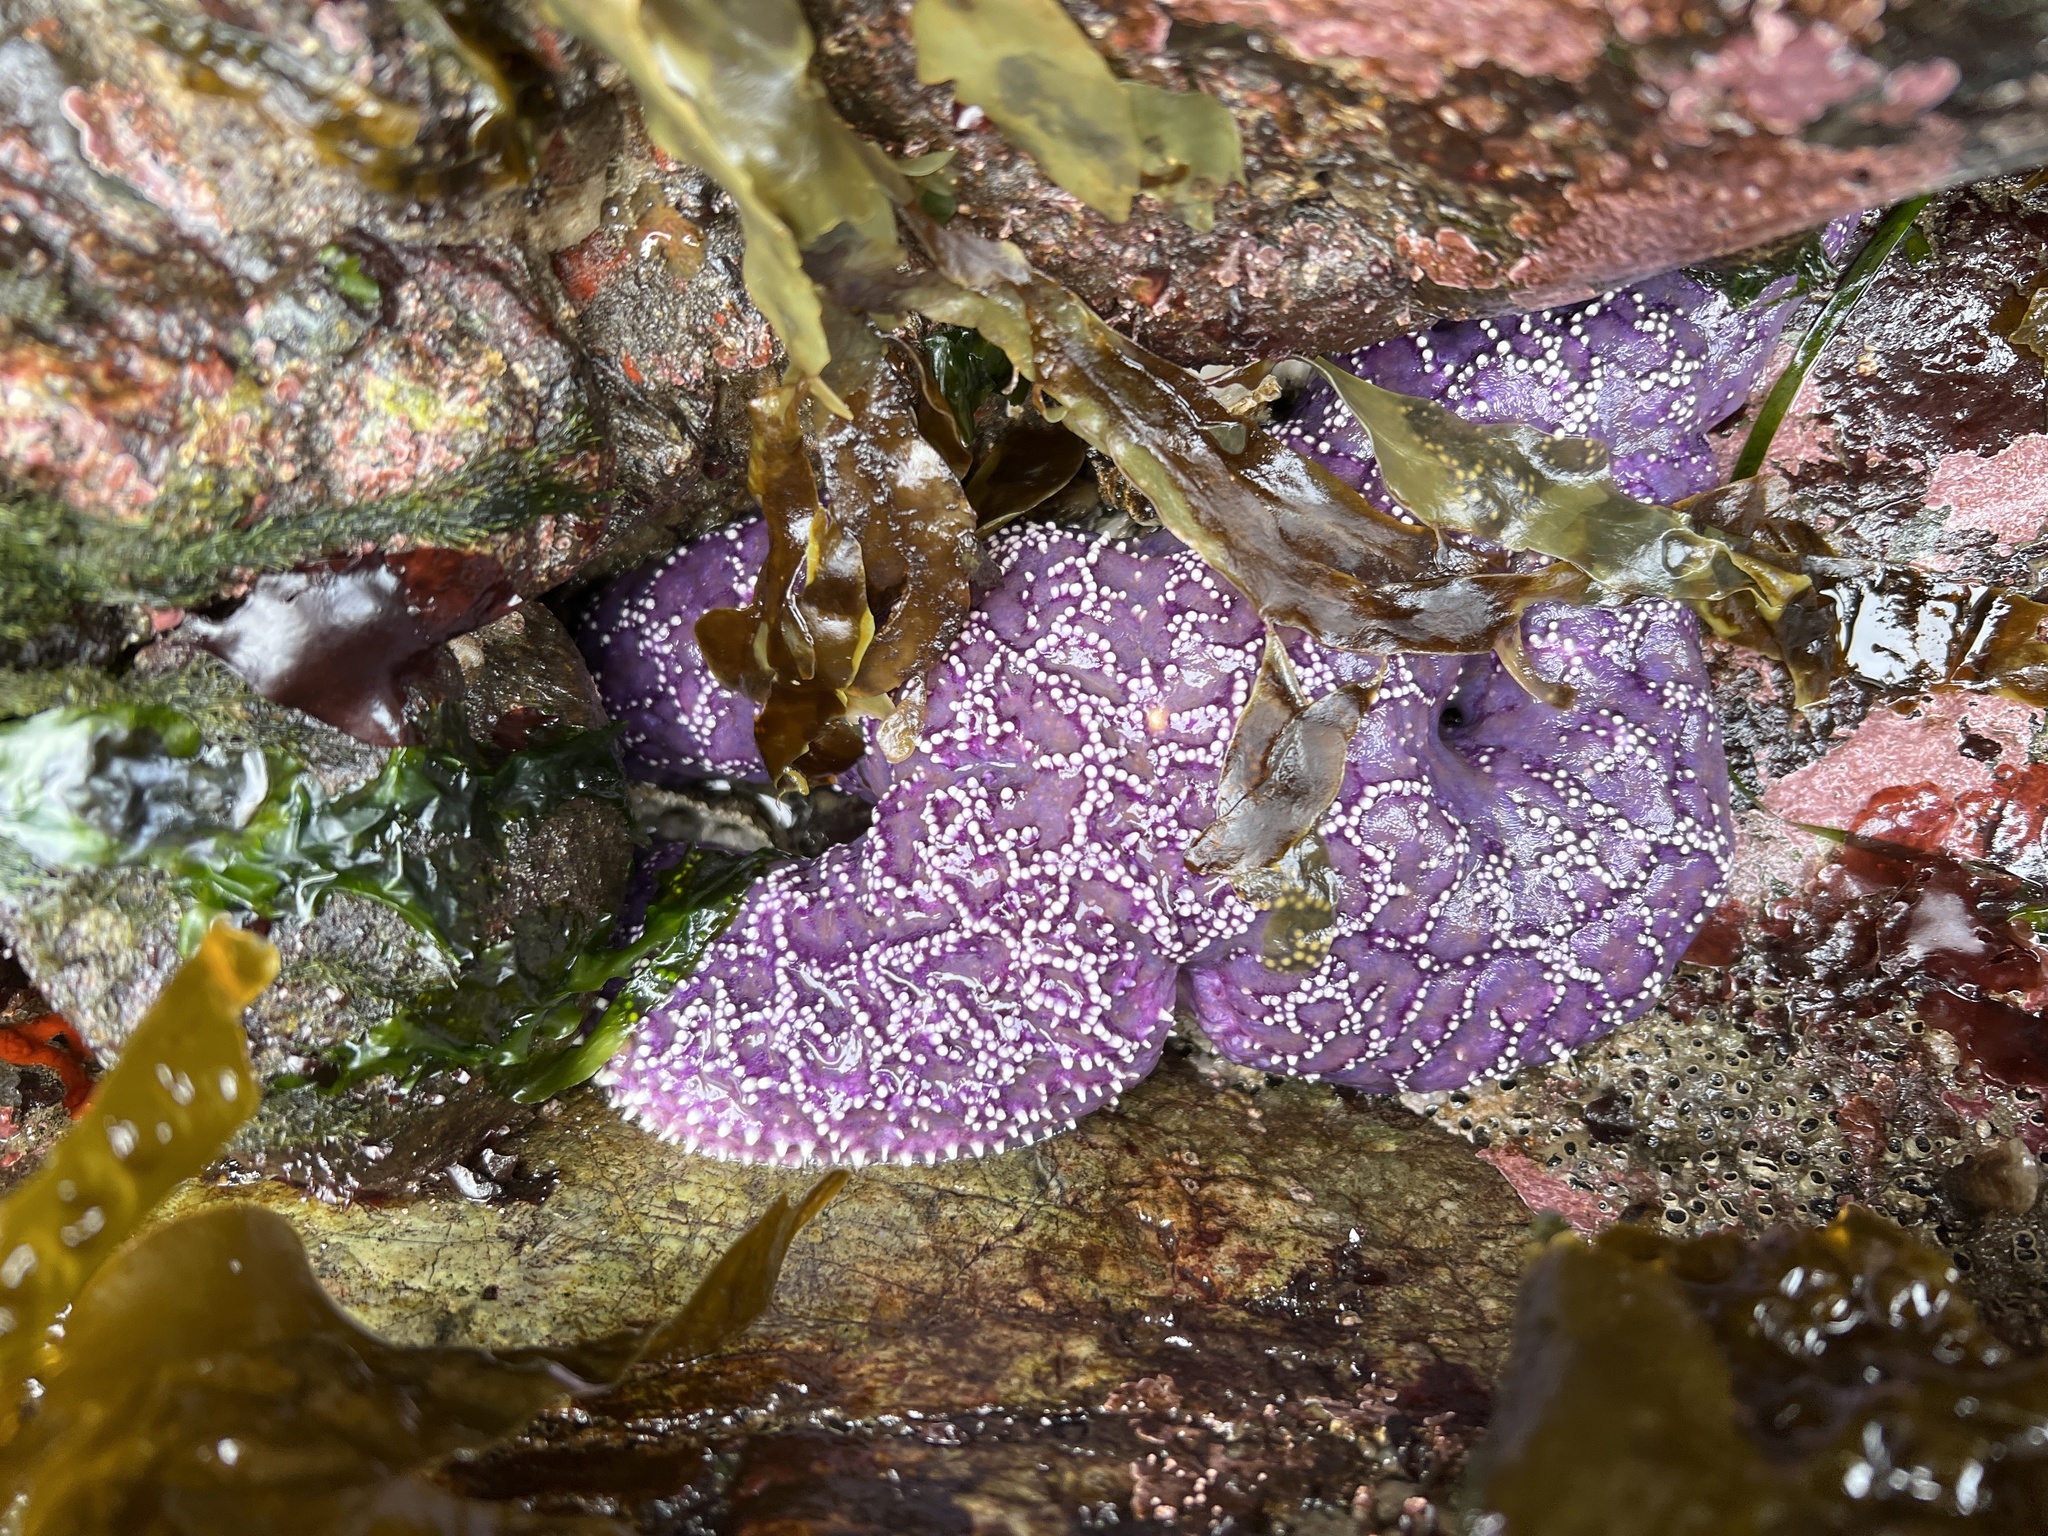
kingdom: Animalia
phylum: Echinodermata
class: Asteroidea
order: Forcipulatida
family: Asteriidae
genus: Pisaster
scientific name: Pisaster ochraceus
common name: Ochre stars
